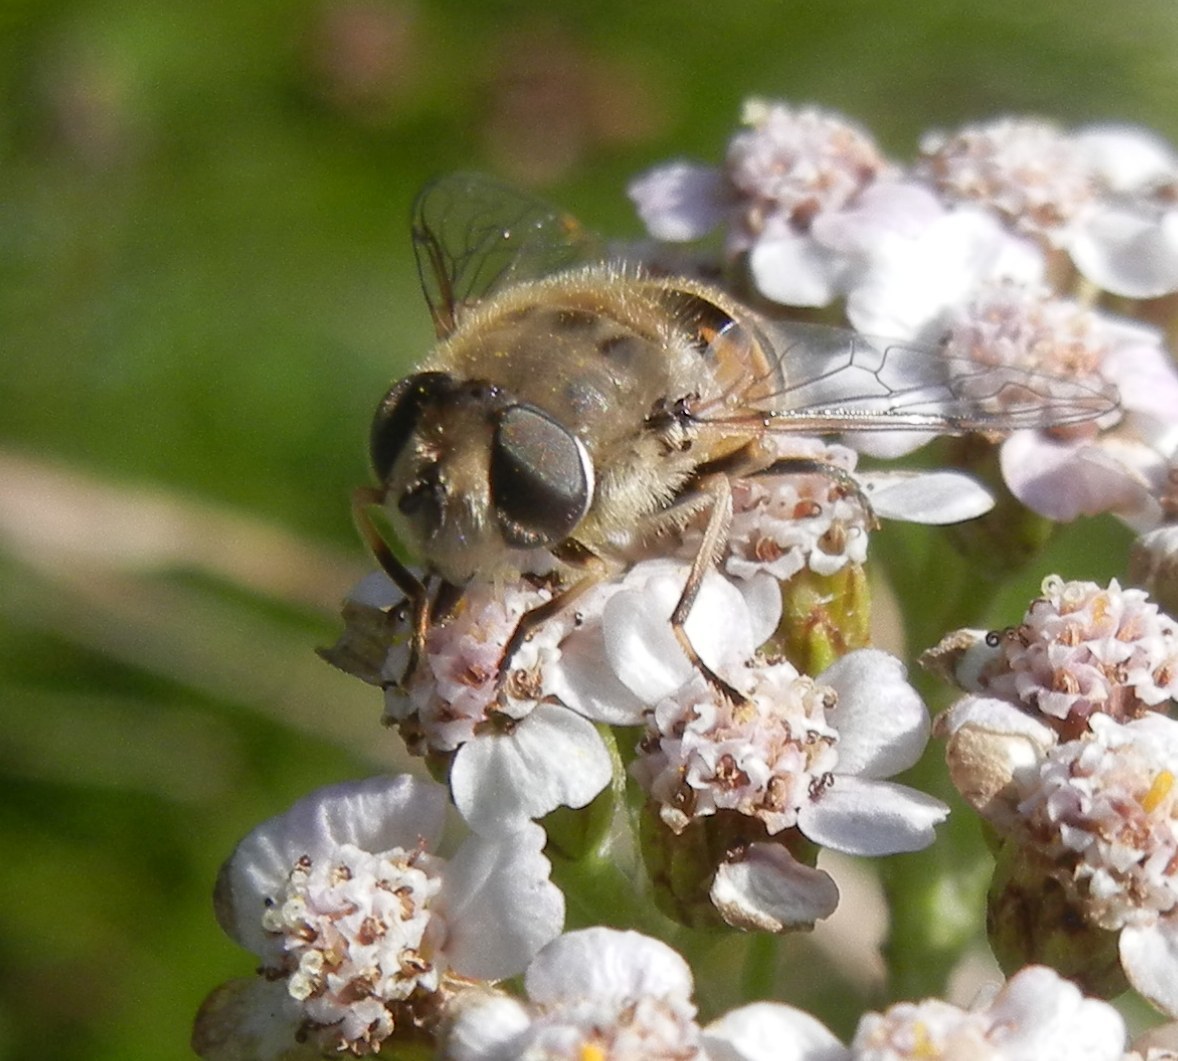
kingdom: Animalia
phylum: Arthropoda
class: Insecta
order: Diptera
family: Syrphidae
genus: Eristalis
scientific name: Eristalis arbustorum
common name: Hover fly
